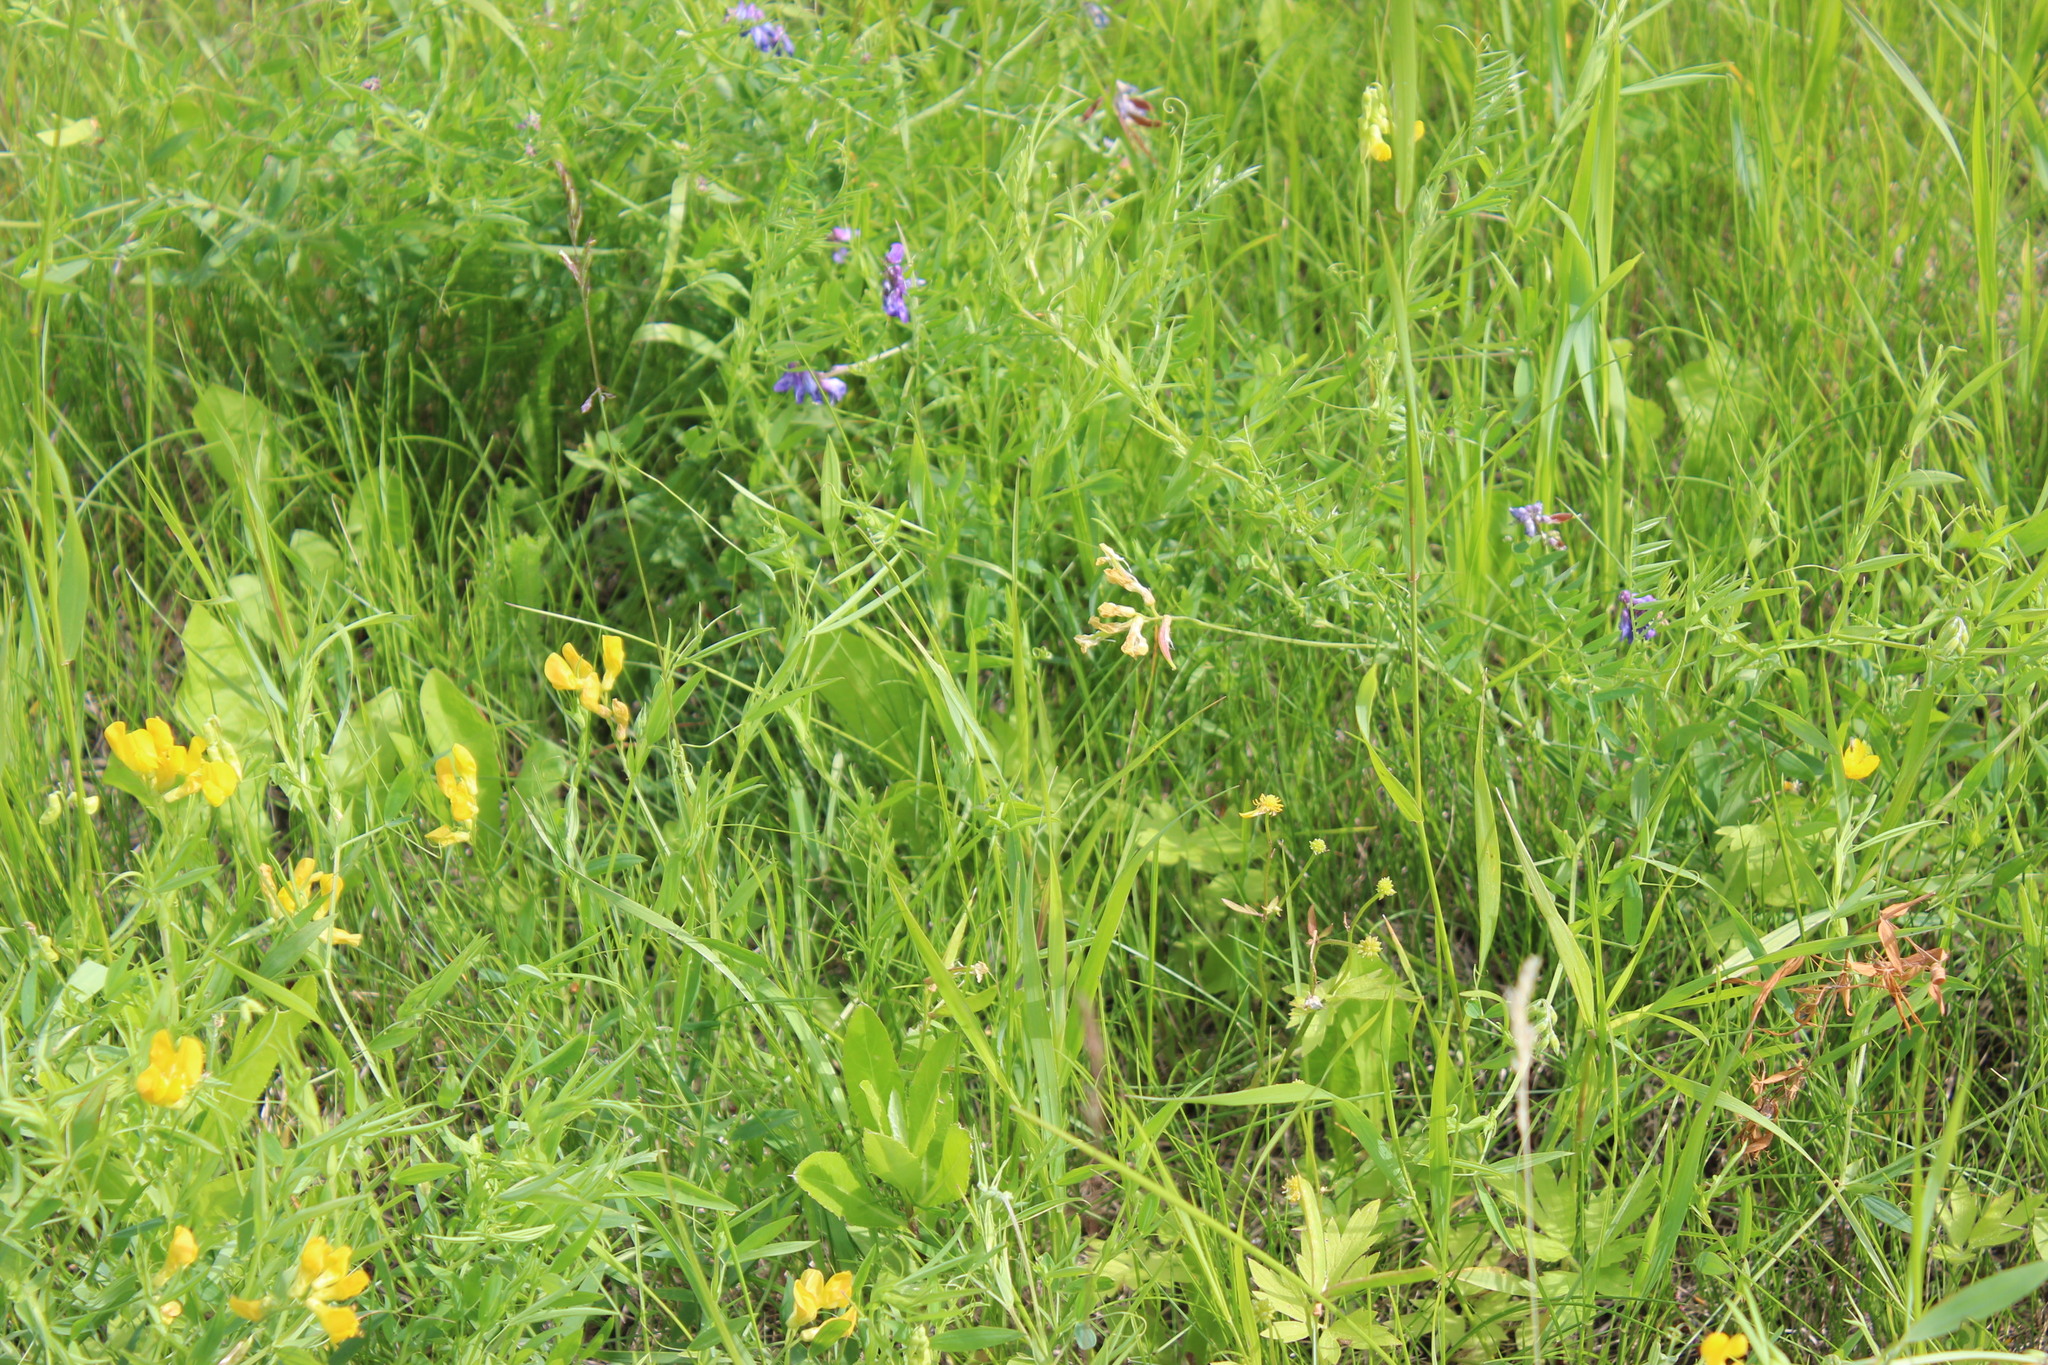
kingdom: Plantae
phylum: Tracheophyta
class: Magnoliopsida
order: Fabales
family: Fabaceae
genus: Lathyrus
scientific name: Lathyrus pratensis
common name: Meadow vetchling
